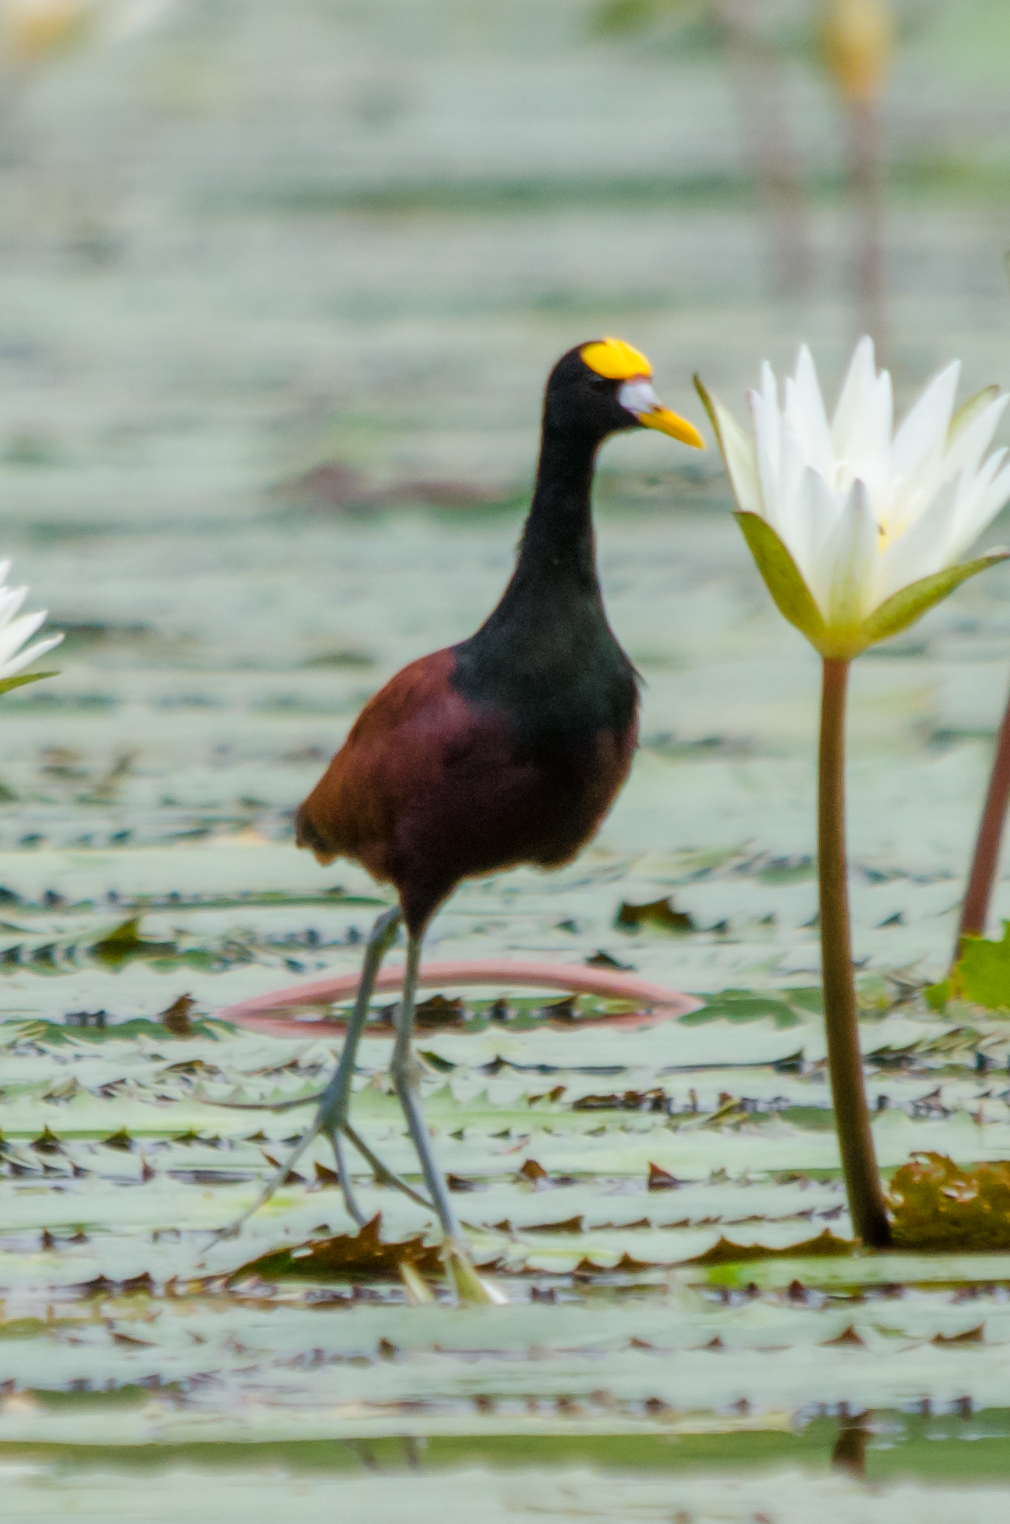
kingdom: Animalia
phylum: Chordata
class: Aves
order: Charadriiformes
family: Jacanidae
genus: Jacana
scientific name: Jacana spinosa
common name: Northern jacana
